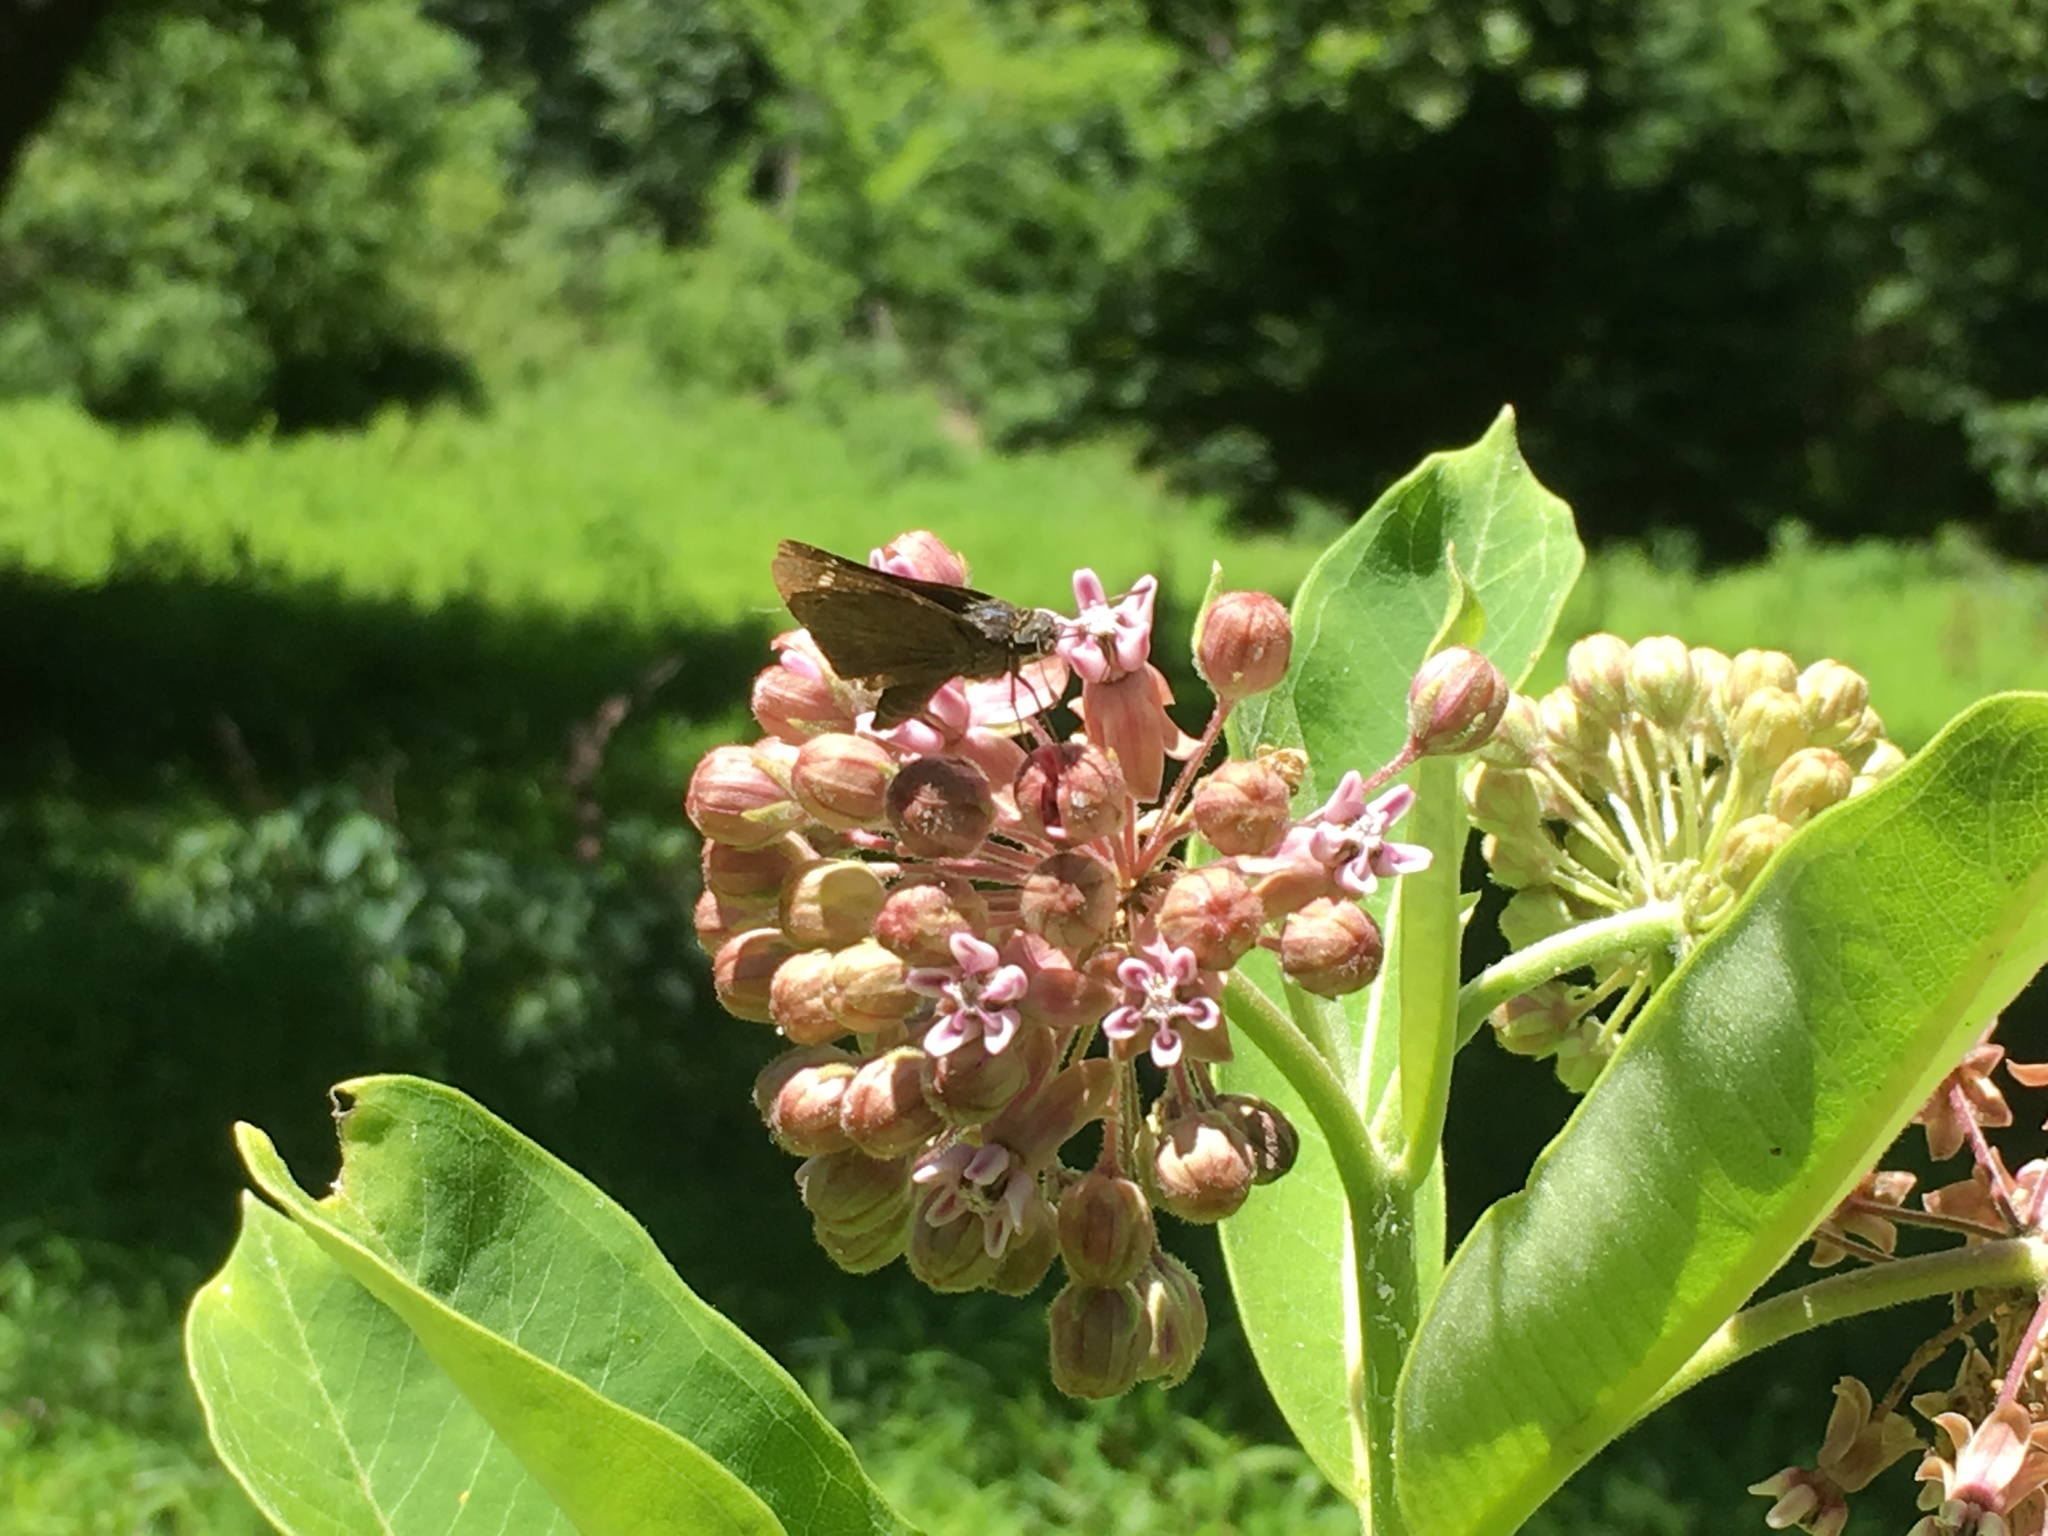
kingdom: Animalia
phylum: Arthropoda
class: Insecta
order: Lepidoptera
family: Hesperiidae
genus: Vernia
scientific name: Vernia verna
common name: Little glassywing
